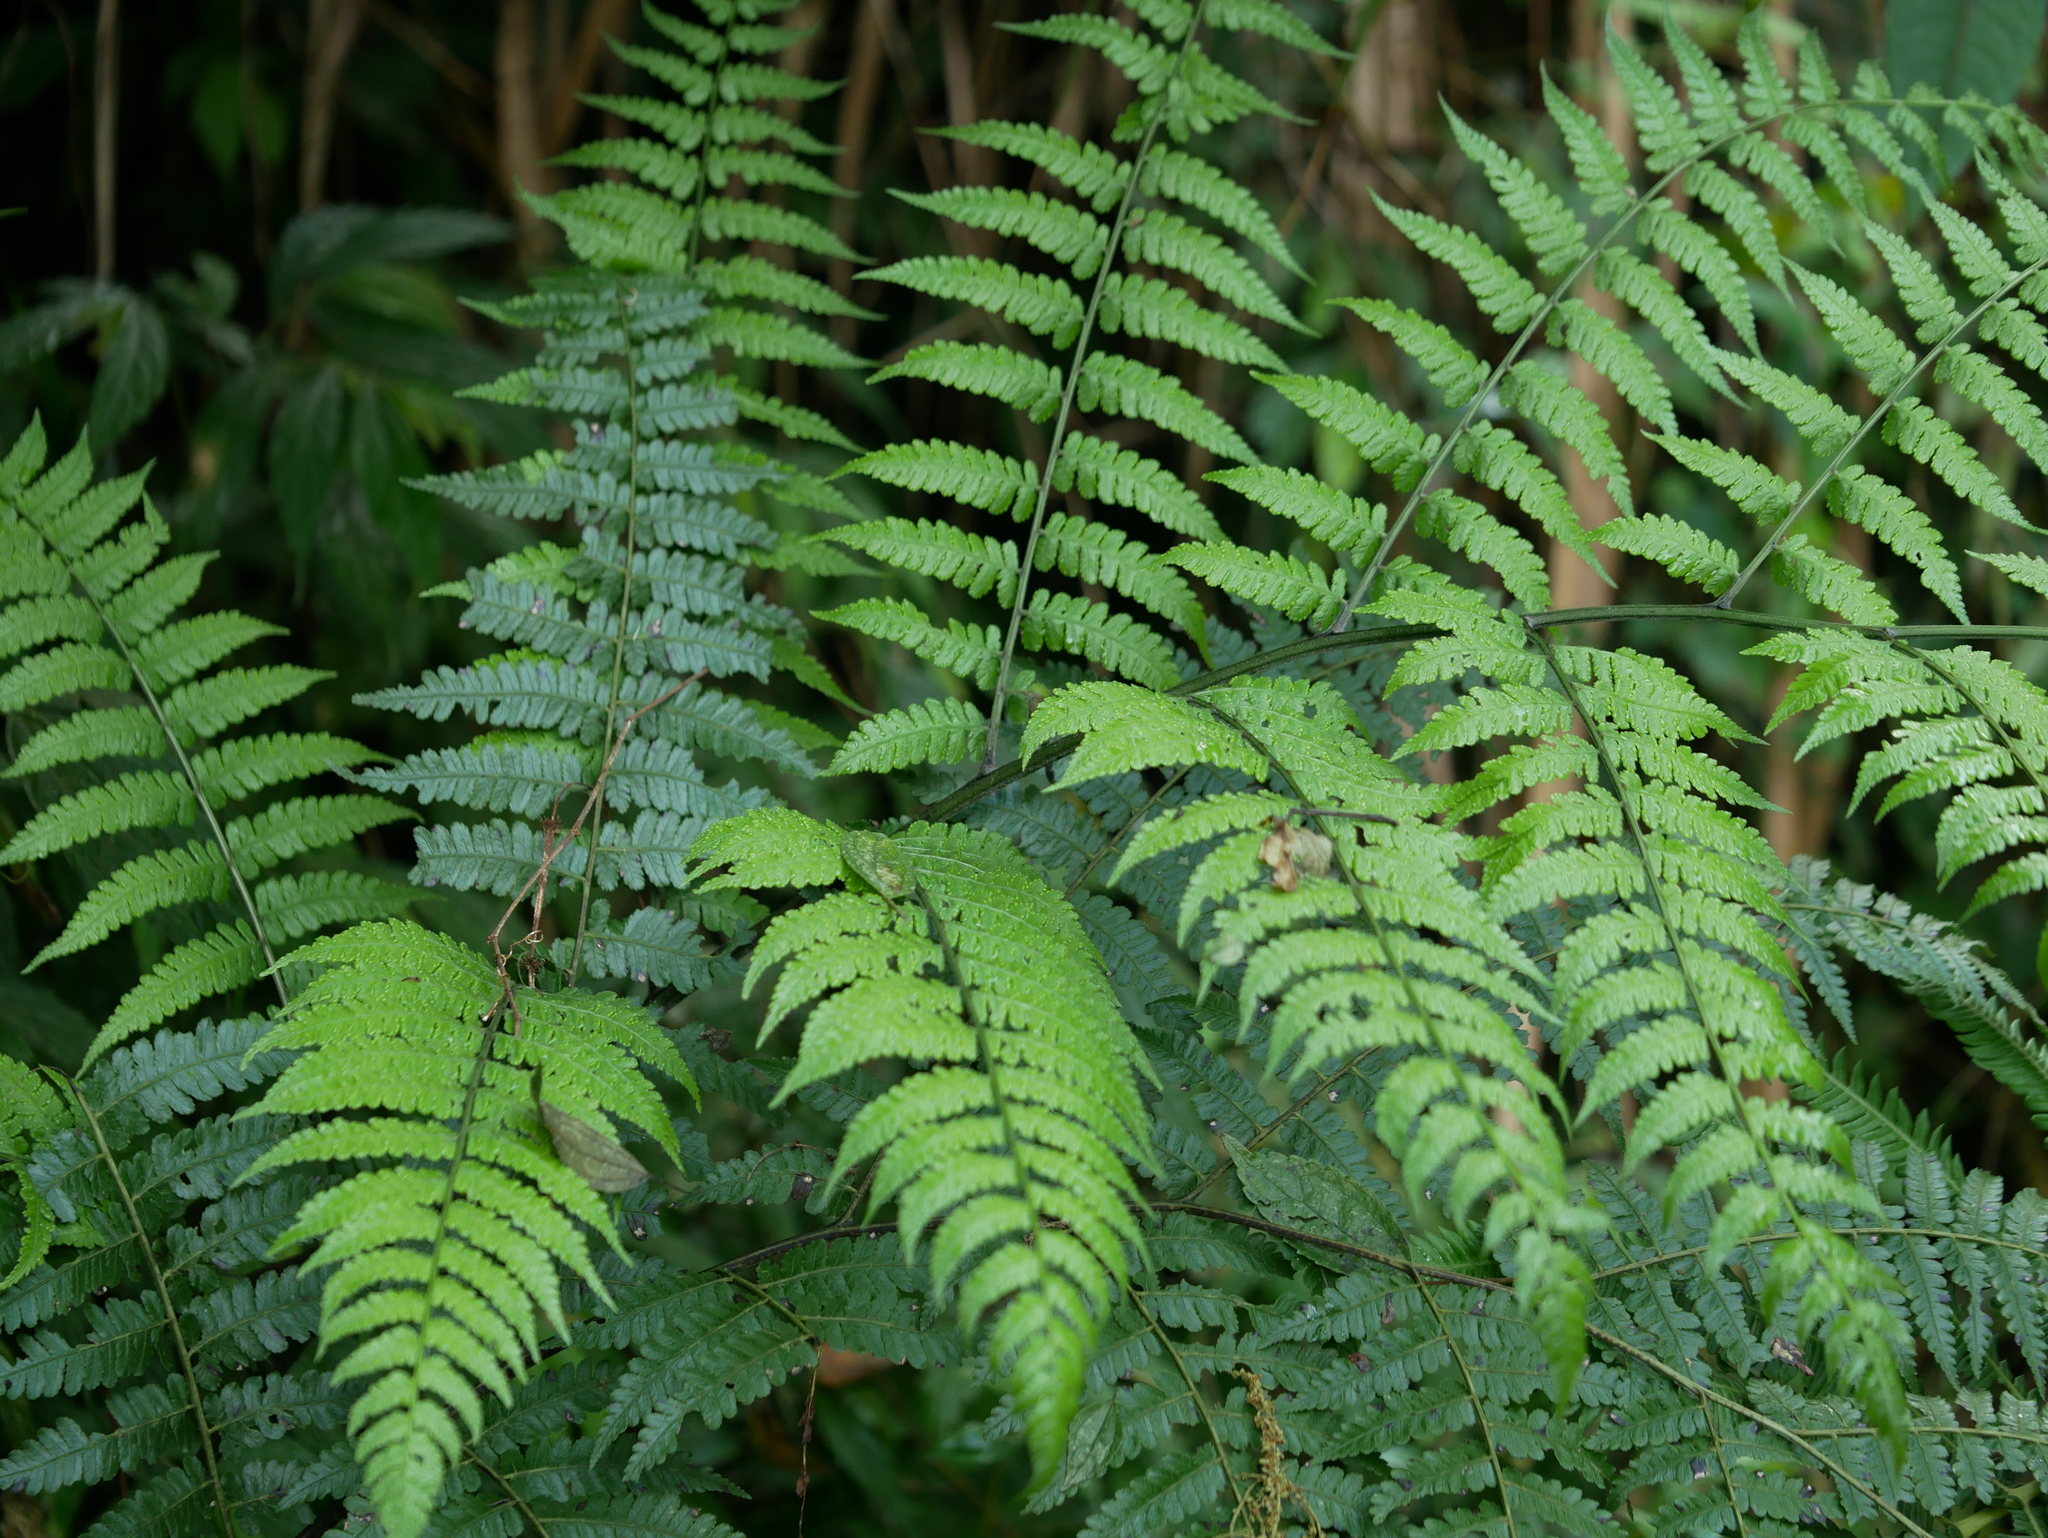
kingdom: Plantae
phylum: Tracheophyta
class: Polypodiopsida
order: Polypodiales
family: Athyriaceae
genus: Diplazium
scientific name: Diplazium laxifrons
